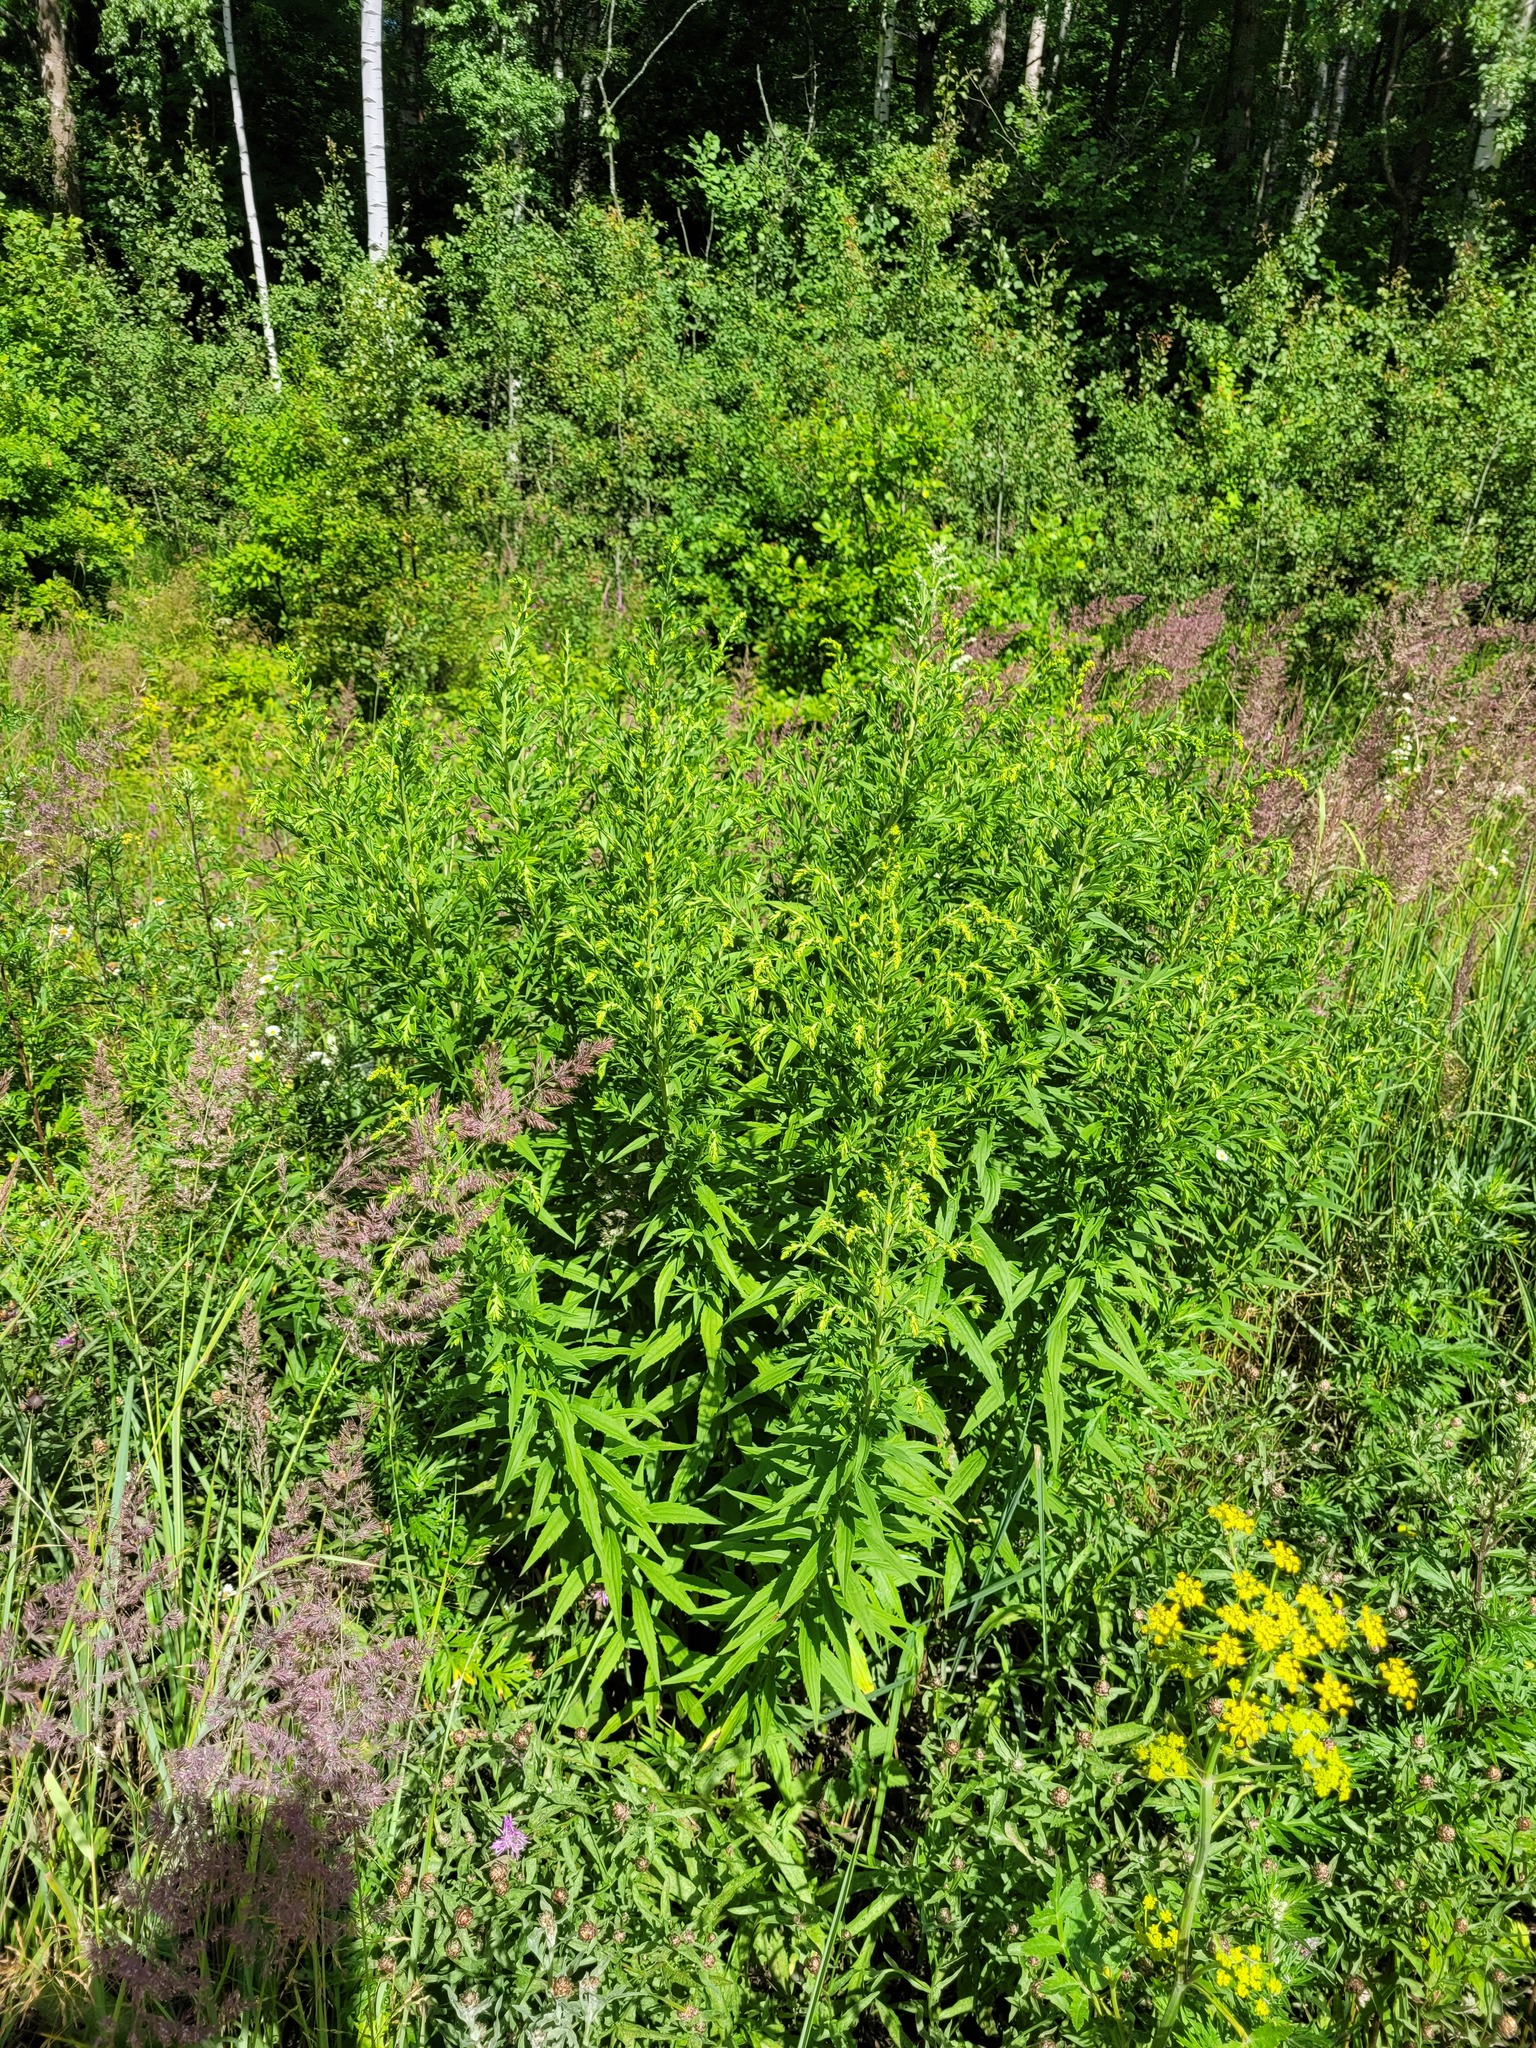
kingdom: Plantae
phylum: Tracheophyta
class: Magnoliopsida
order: Asterales
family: Asteraceae
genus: Solidago
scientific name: Solidago canadensis
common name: Canada goldenrod
